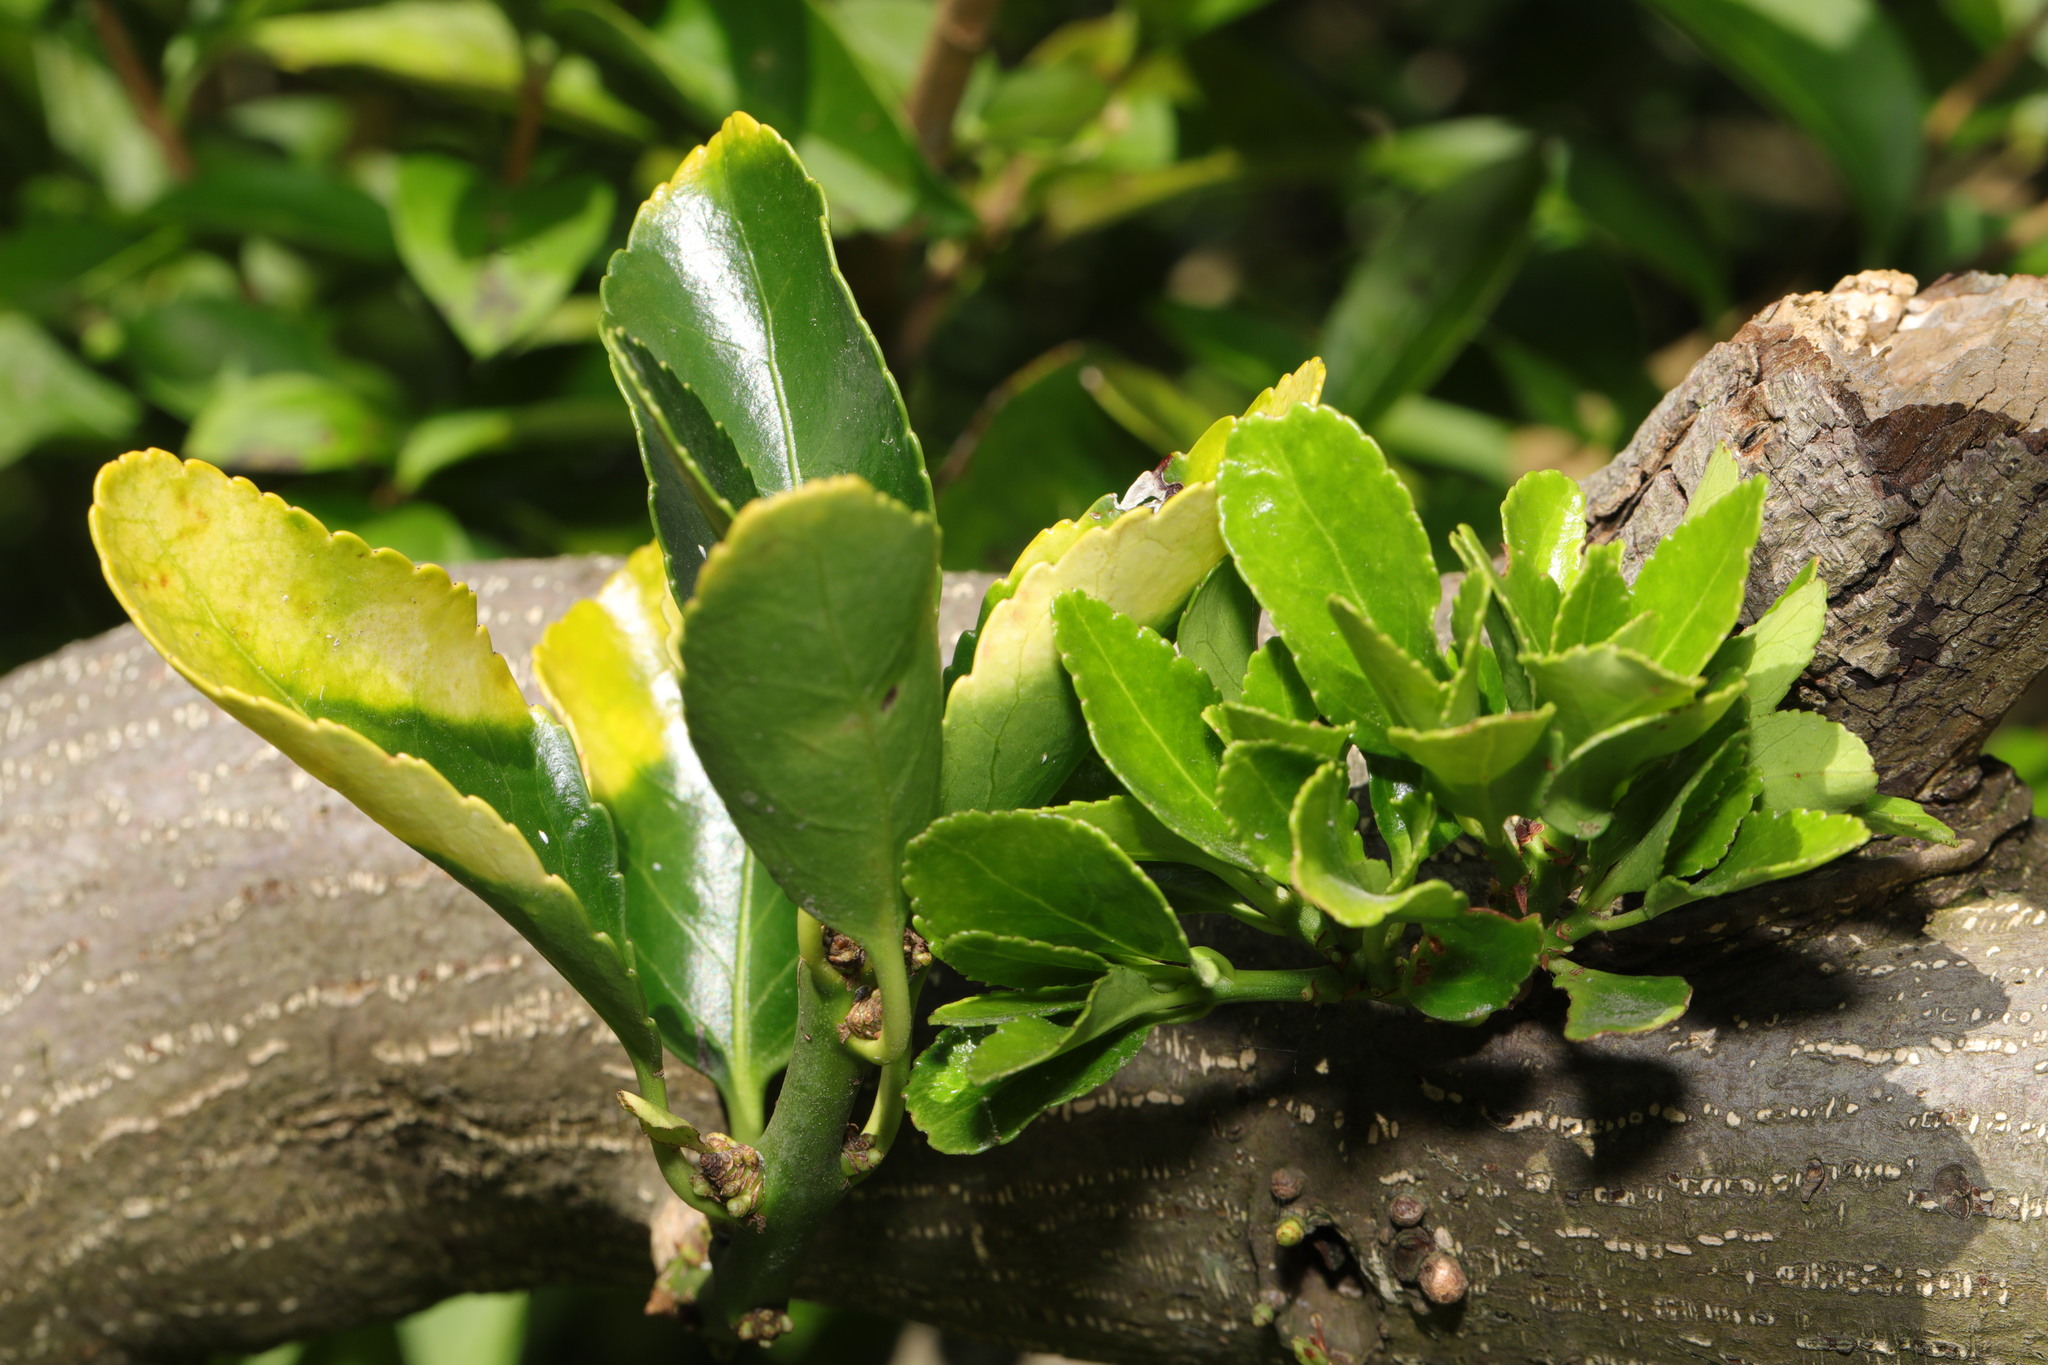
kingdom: Plantae
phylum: Tracheophyta
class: Magnoliopsida
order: Celastrales
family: Celastraceae
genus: Euonymus
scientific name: Euonymus japonicus
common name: Japanese spindletree
